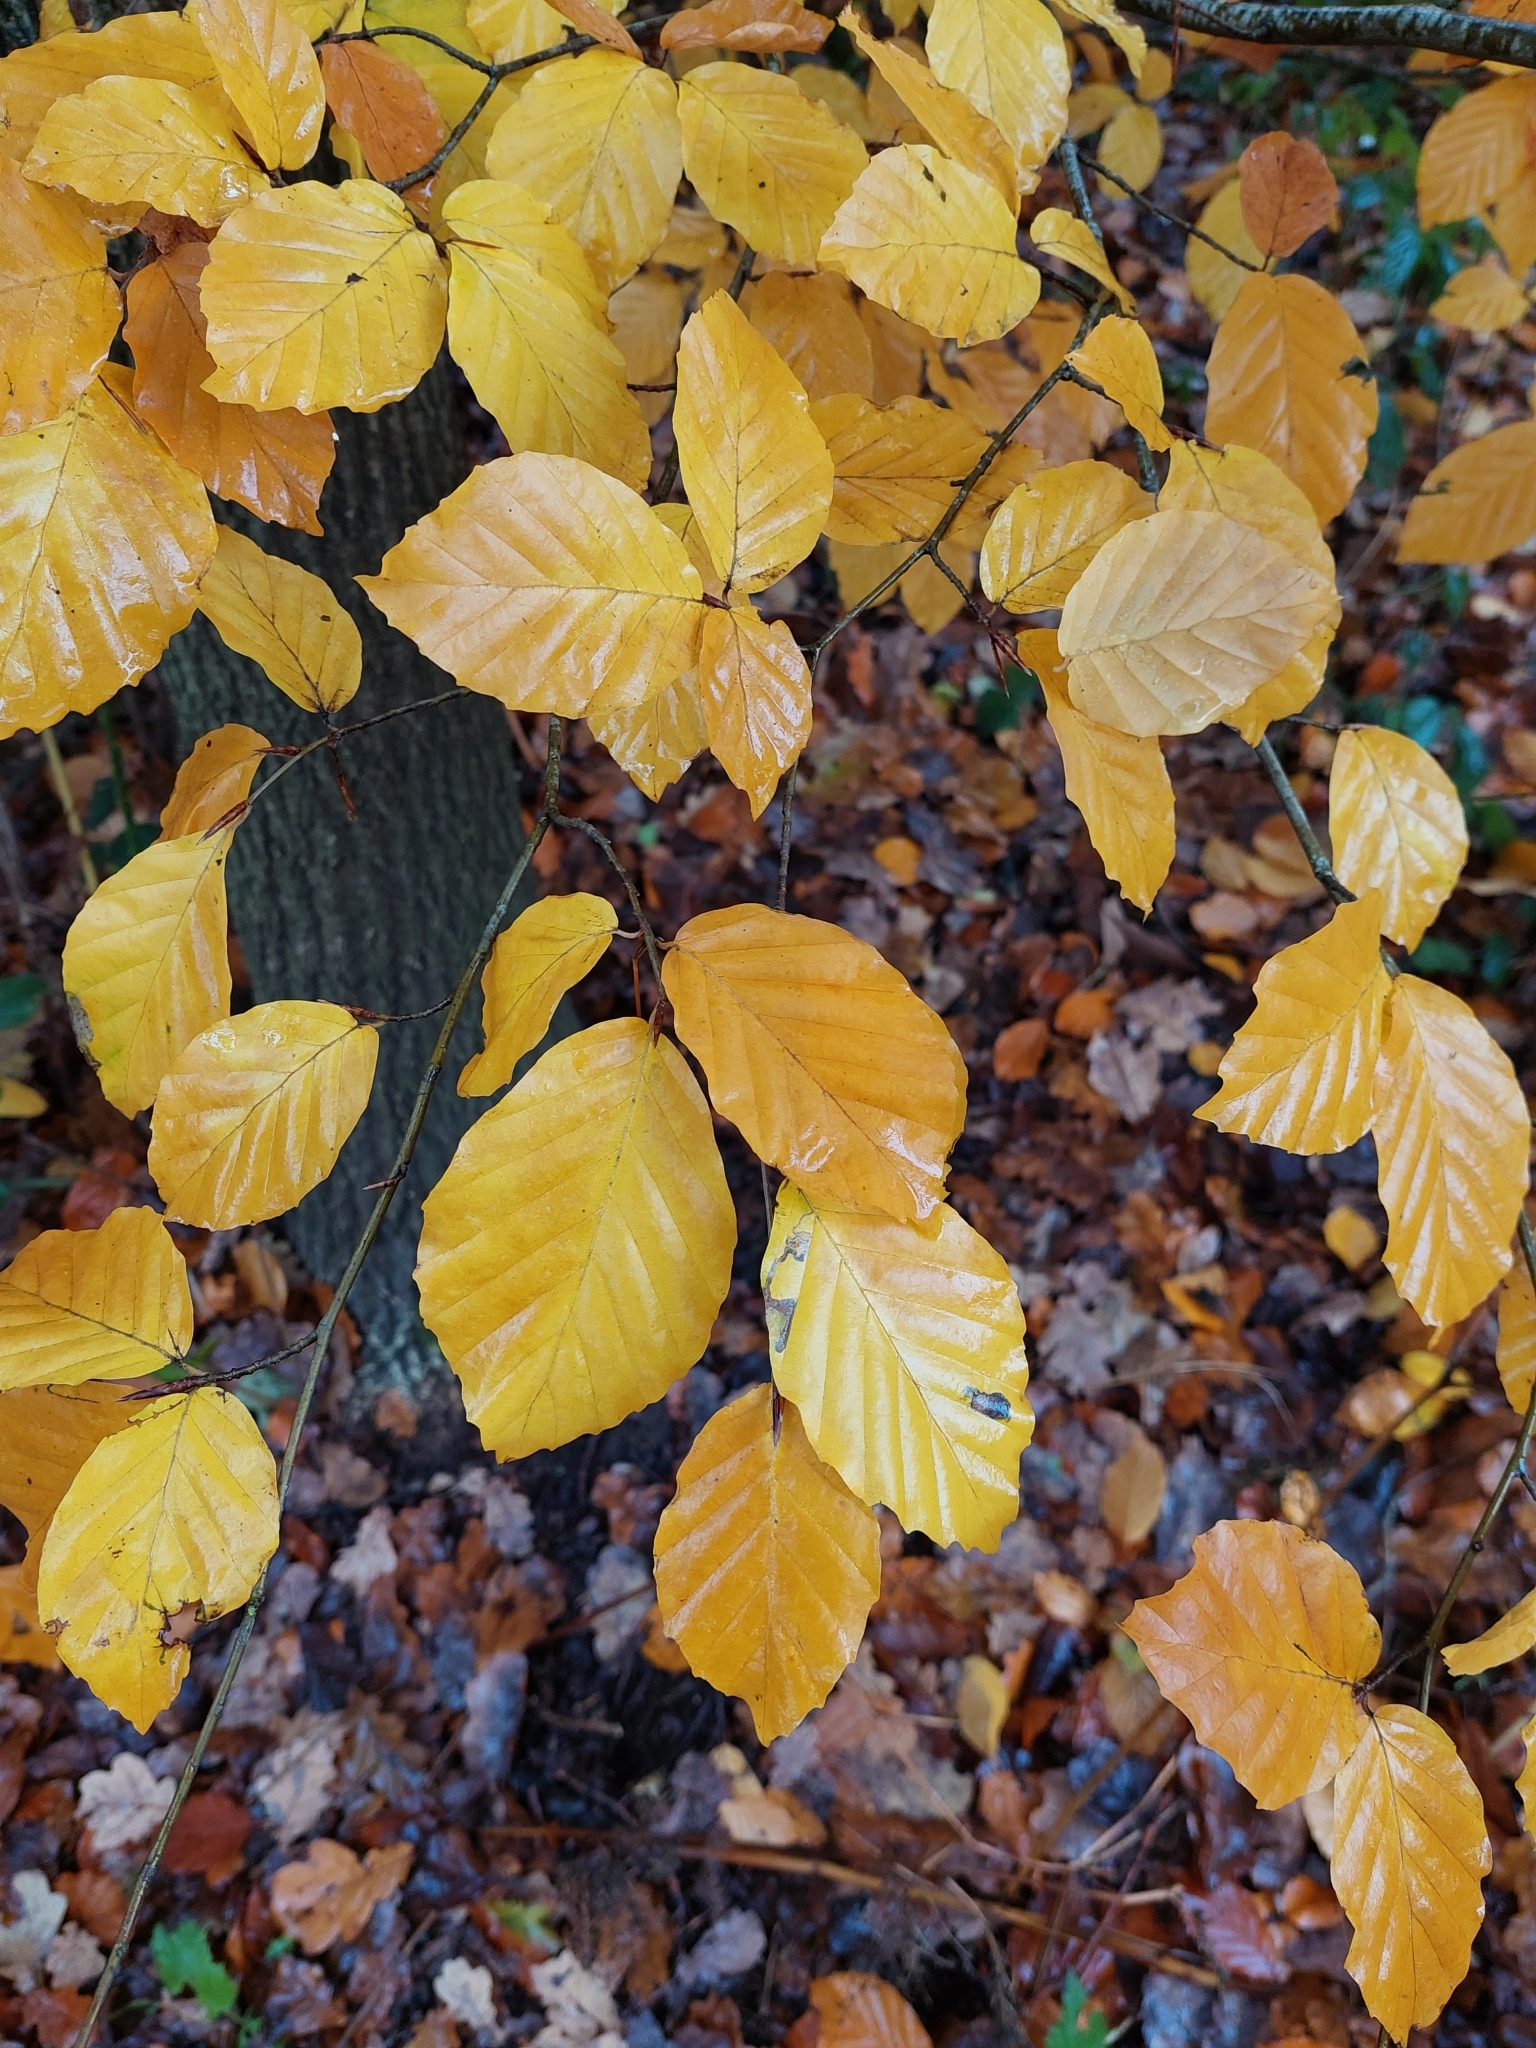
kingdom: Plantae
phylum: Tracheophyta
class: Magnoliopsida
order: Fagales
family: Fagaceae
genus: Fagus
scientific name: Fagus sylvatica
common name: Beech
